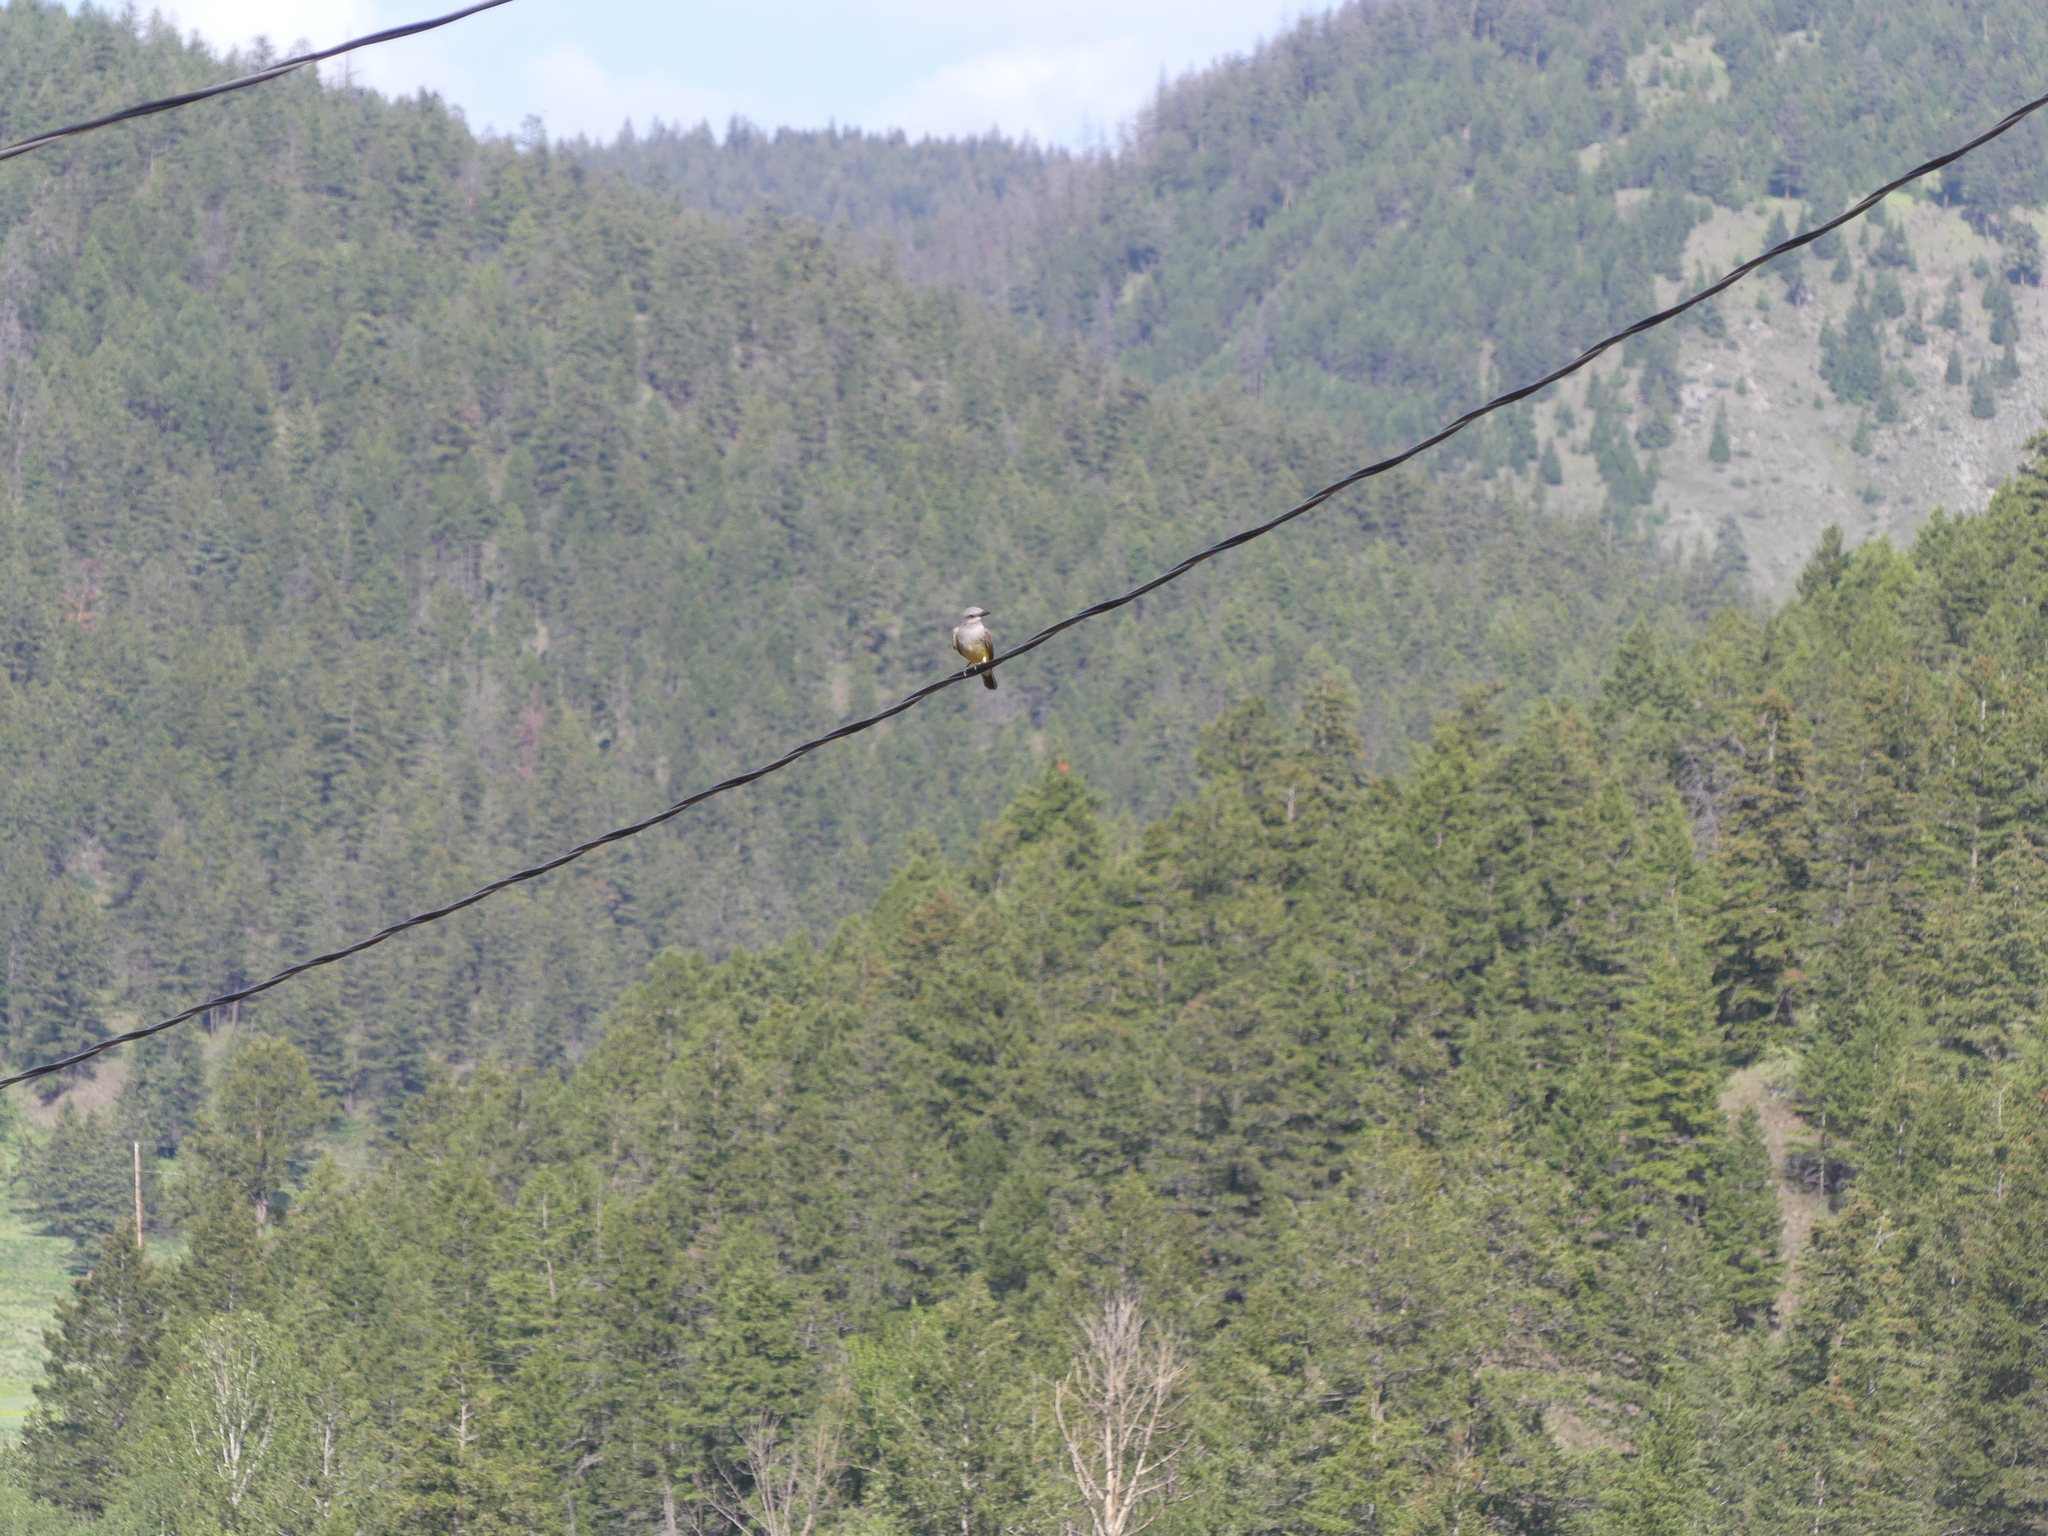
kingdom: Animalia
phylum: Chordata
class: Aves
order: Passeriformes
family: Tyrannidae
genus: Tyrannus
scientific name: Tyrannus verticalis
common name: Western kingbird
